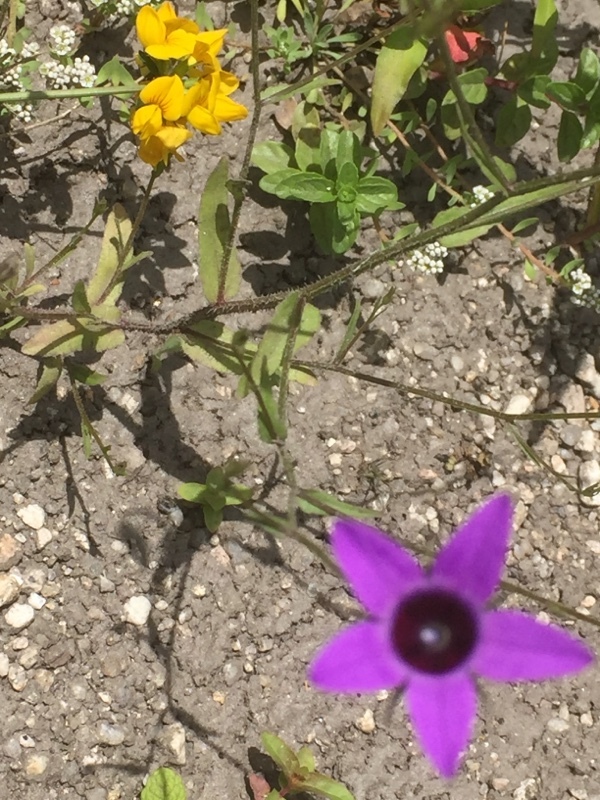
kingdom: Plantae
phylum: Tracheophyta
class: Magnoliopsida
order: Asterales
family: Campanulaceae
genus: Campanula
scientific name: Campanula lusitanica
